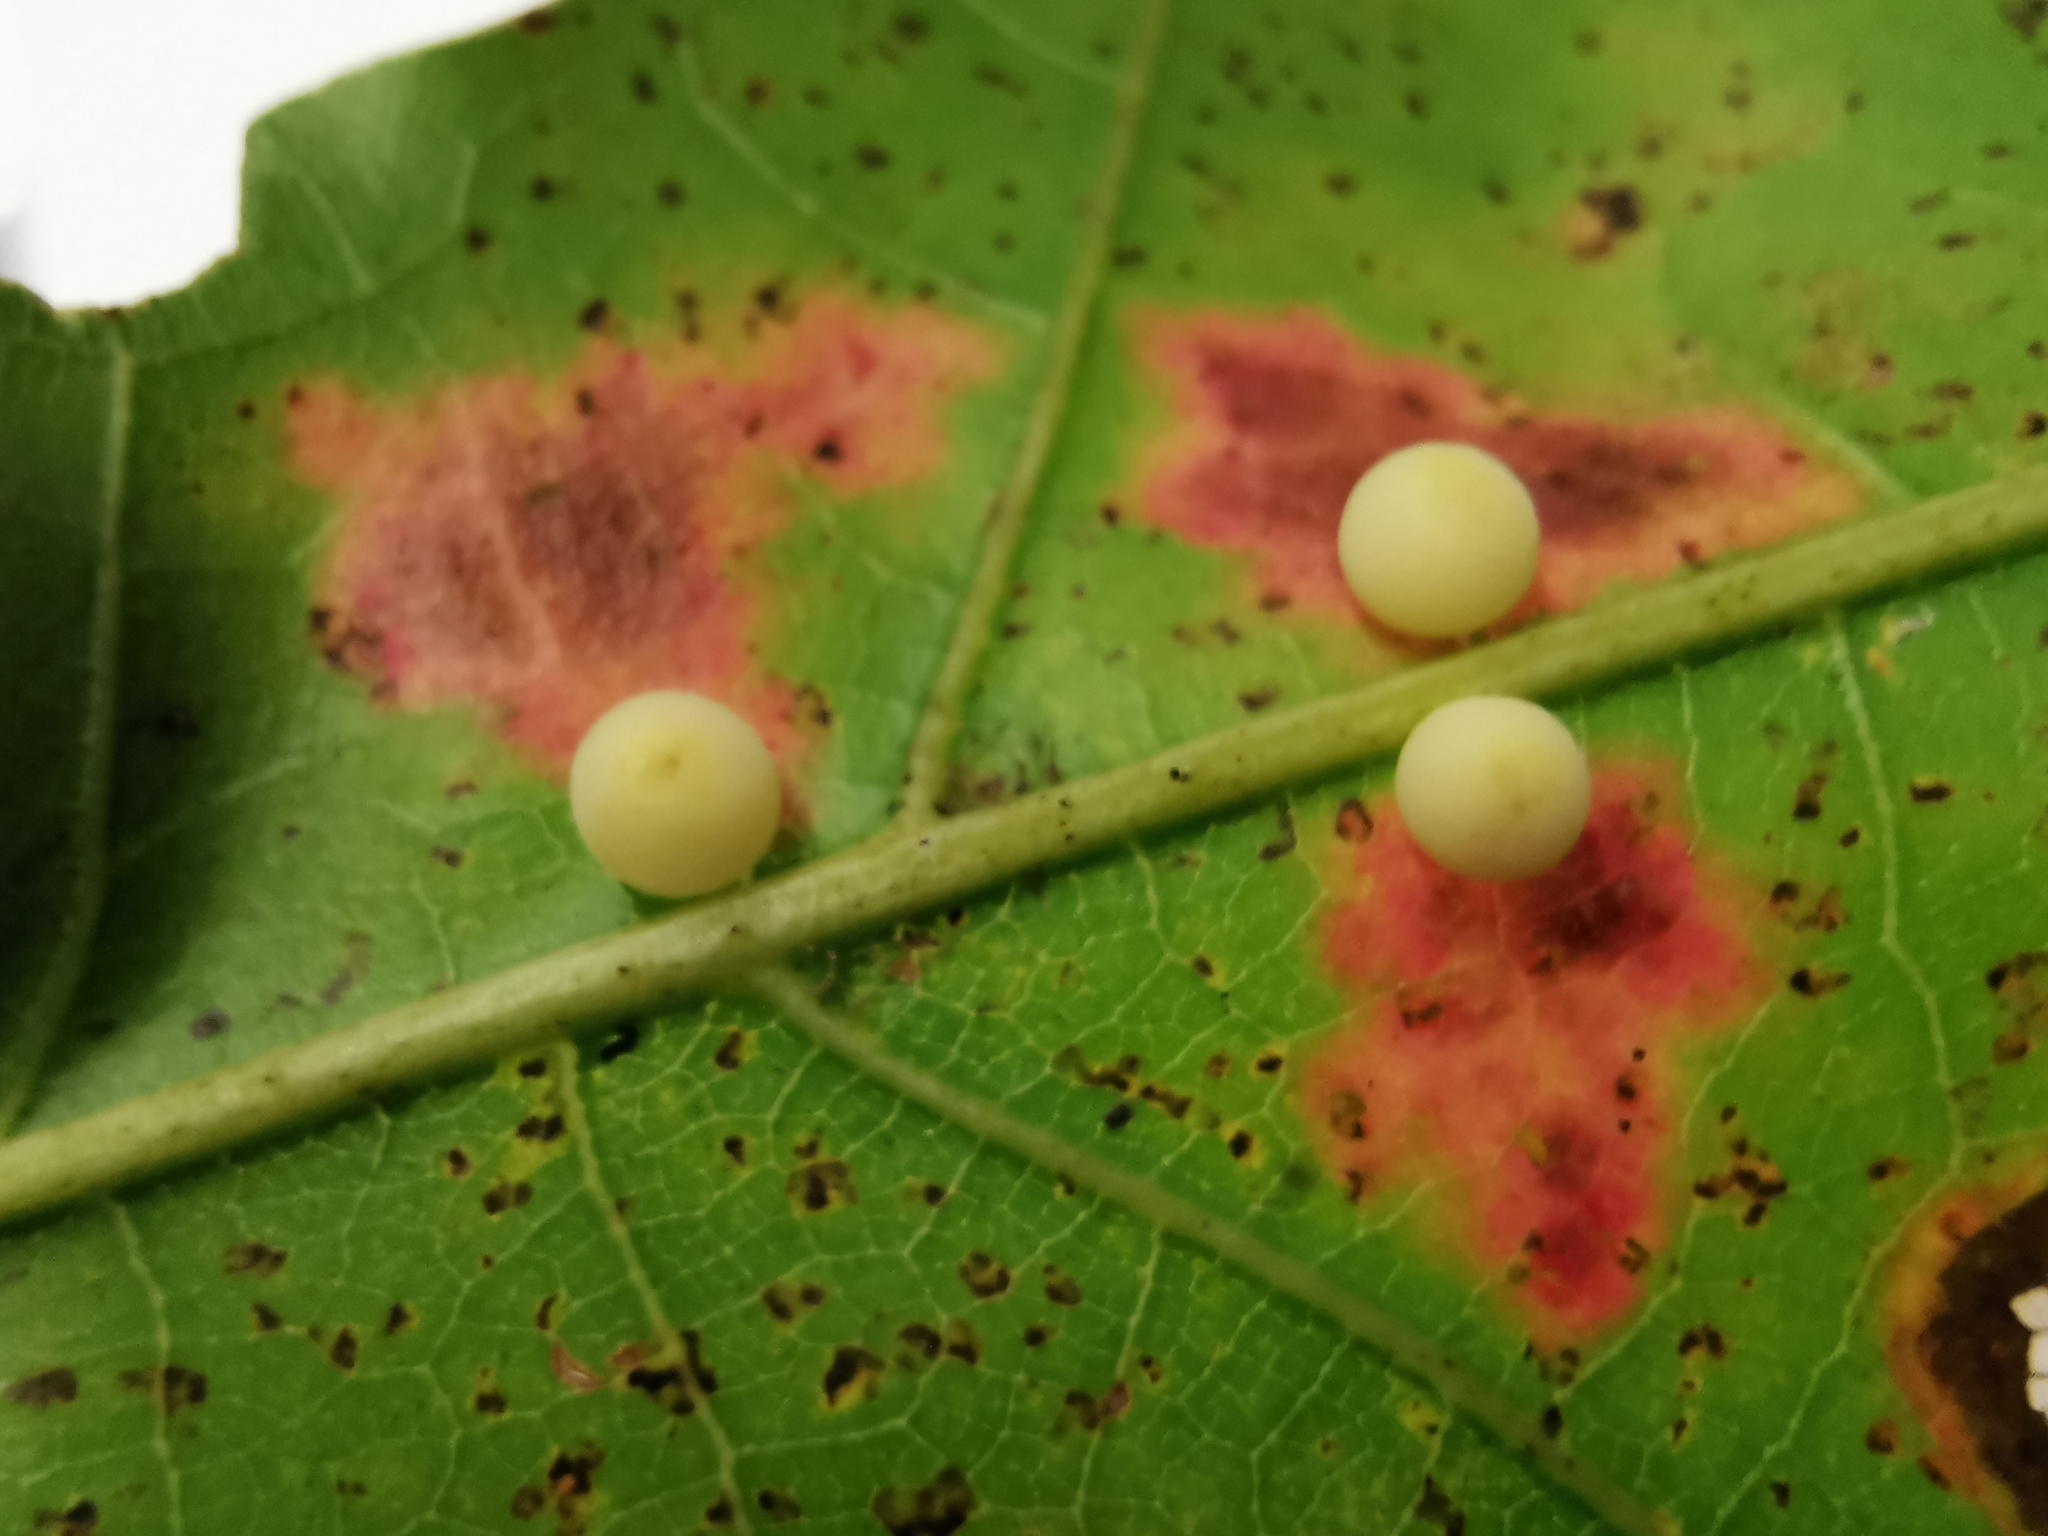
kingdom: Animalia
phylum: Arthropoda
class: Insecta
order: Hymenoptera
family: Cynipidae
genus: Zopheroteras
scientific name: Zopheroteras
